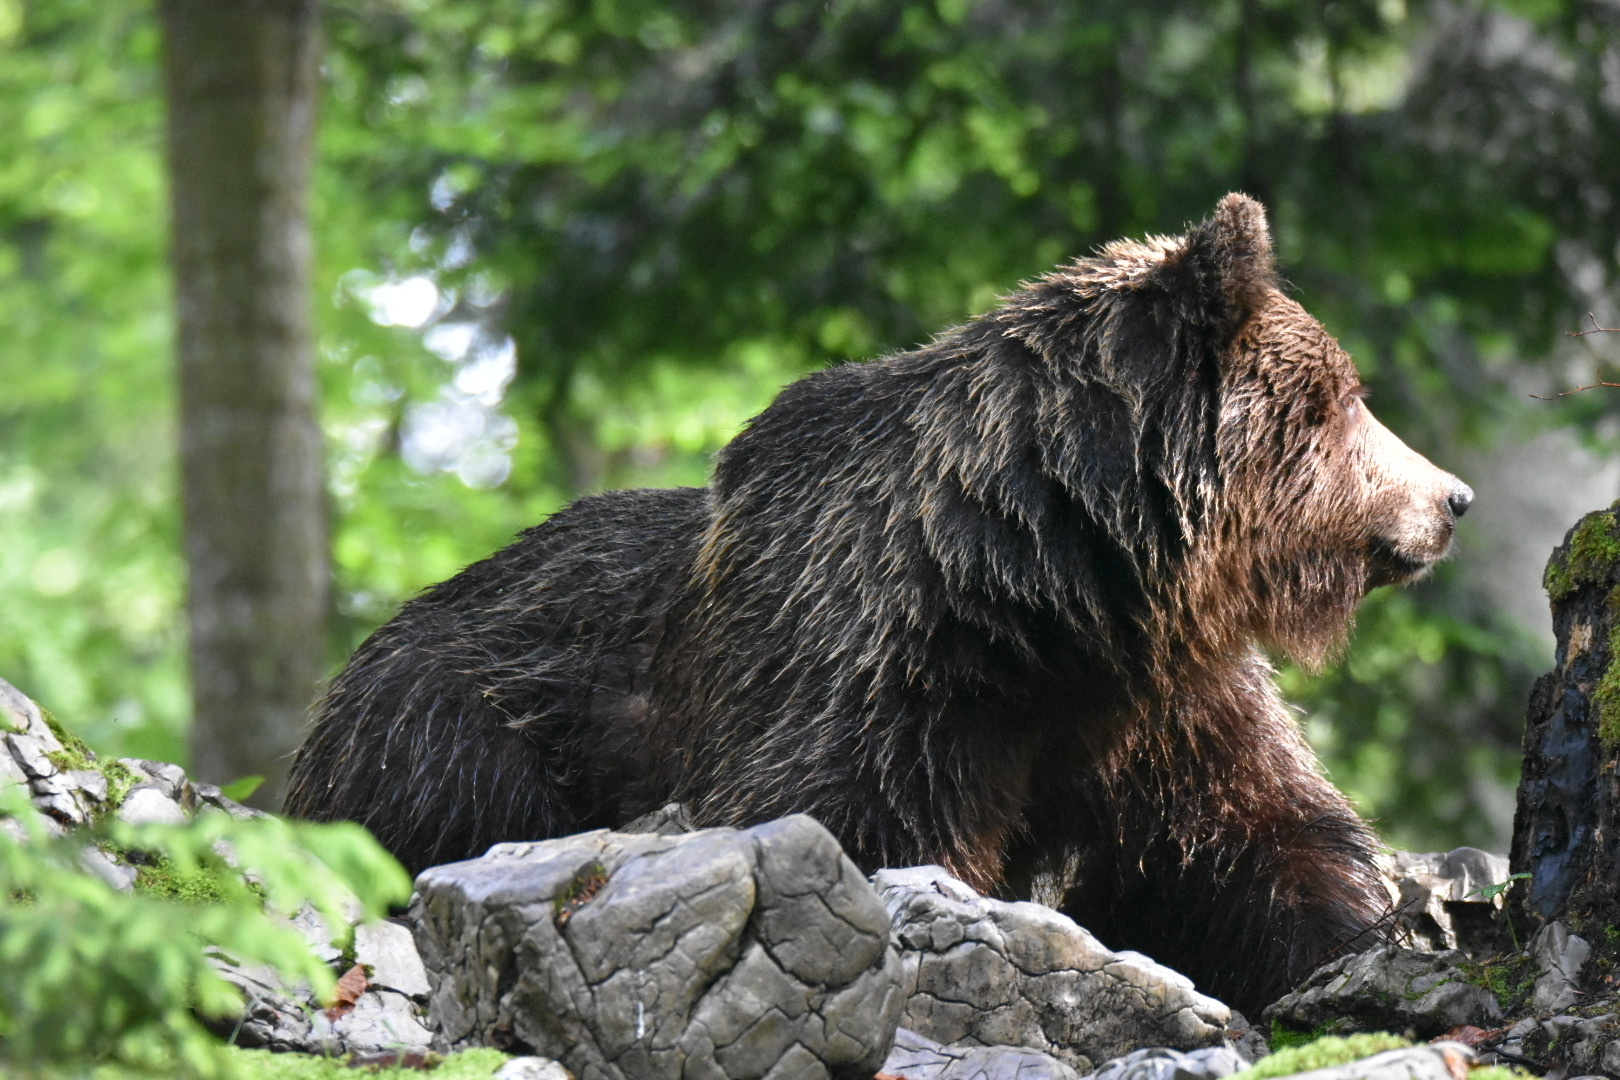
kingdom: Animalia
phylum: Chordata
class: Mammalia
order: Carnivora
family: Ursidae
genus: Ursus
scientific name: Ursus arctos
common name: Brown bear
